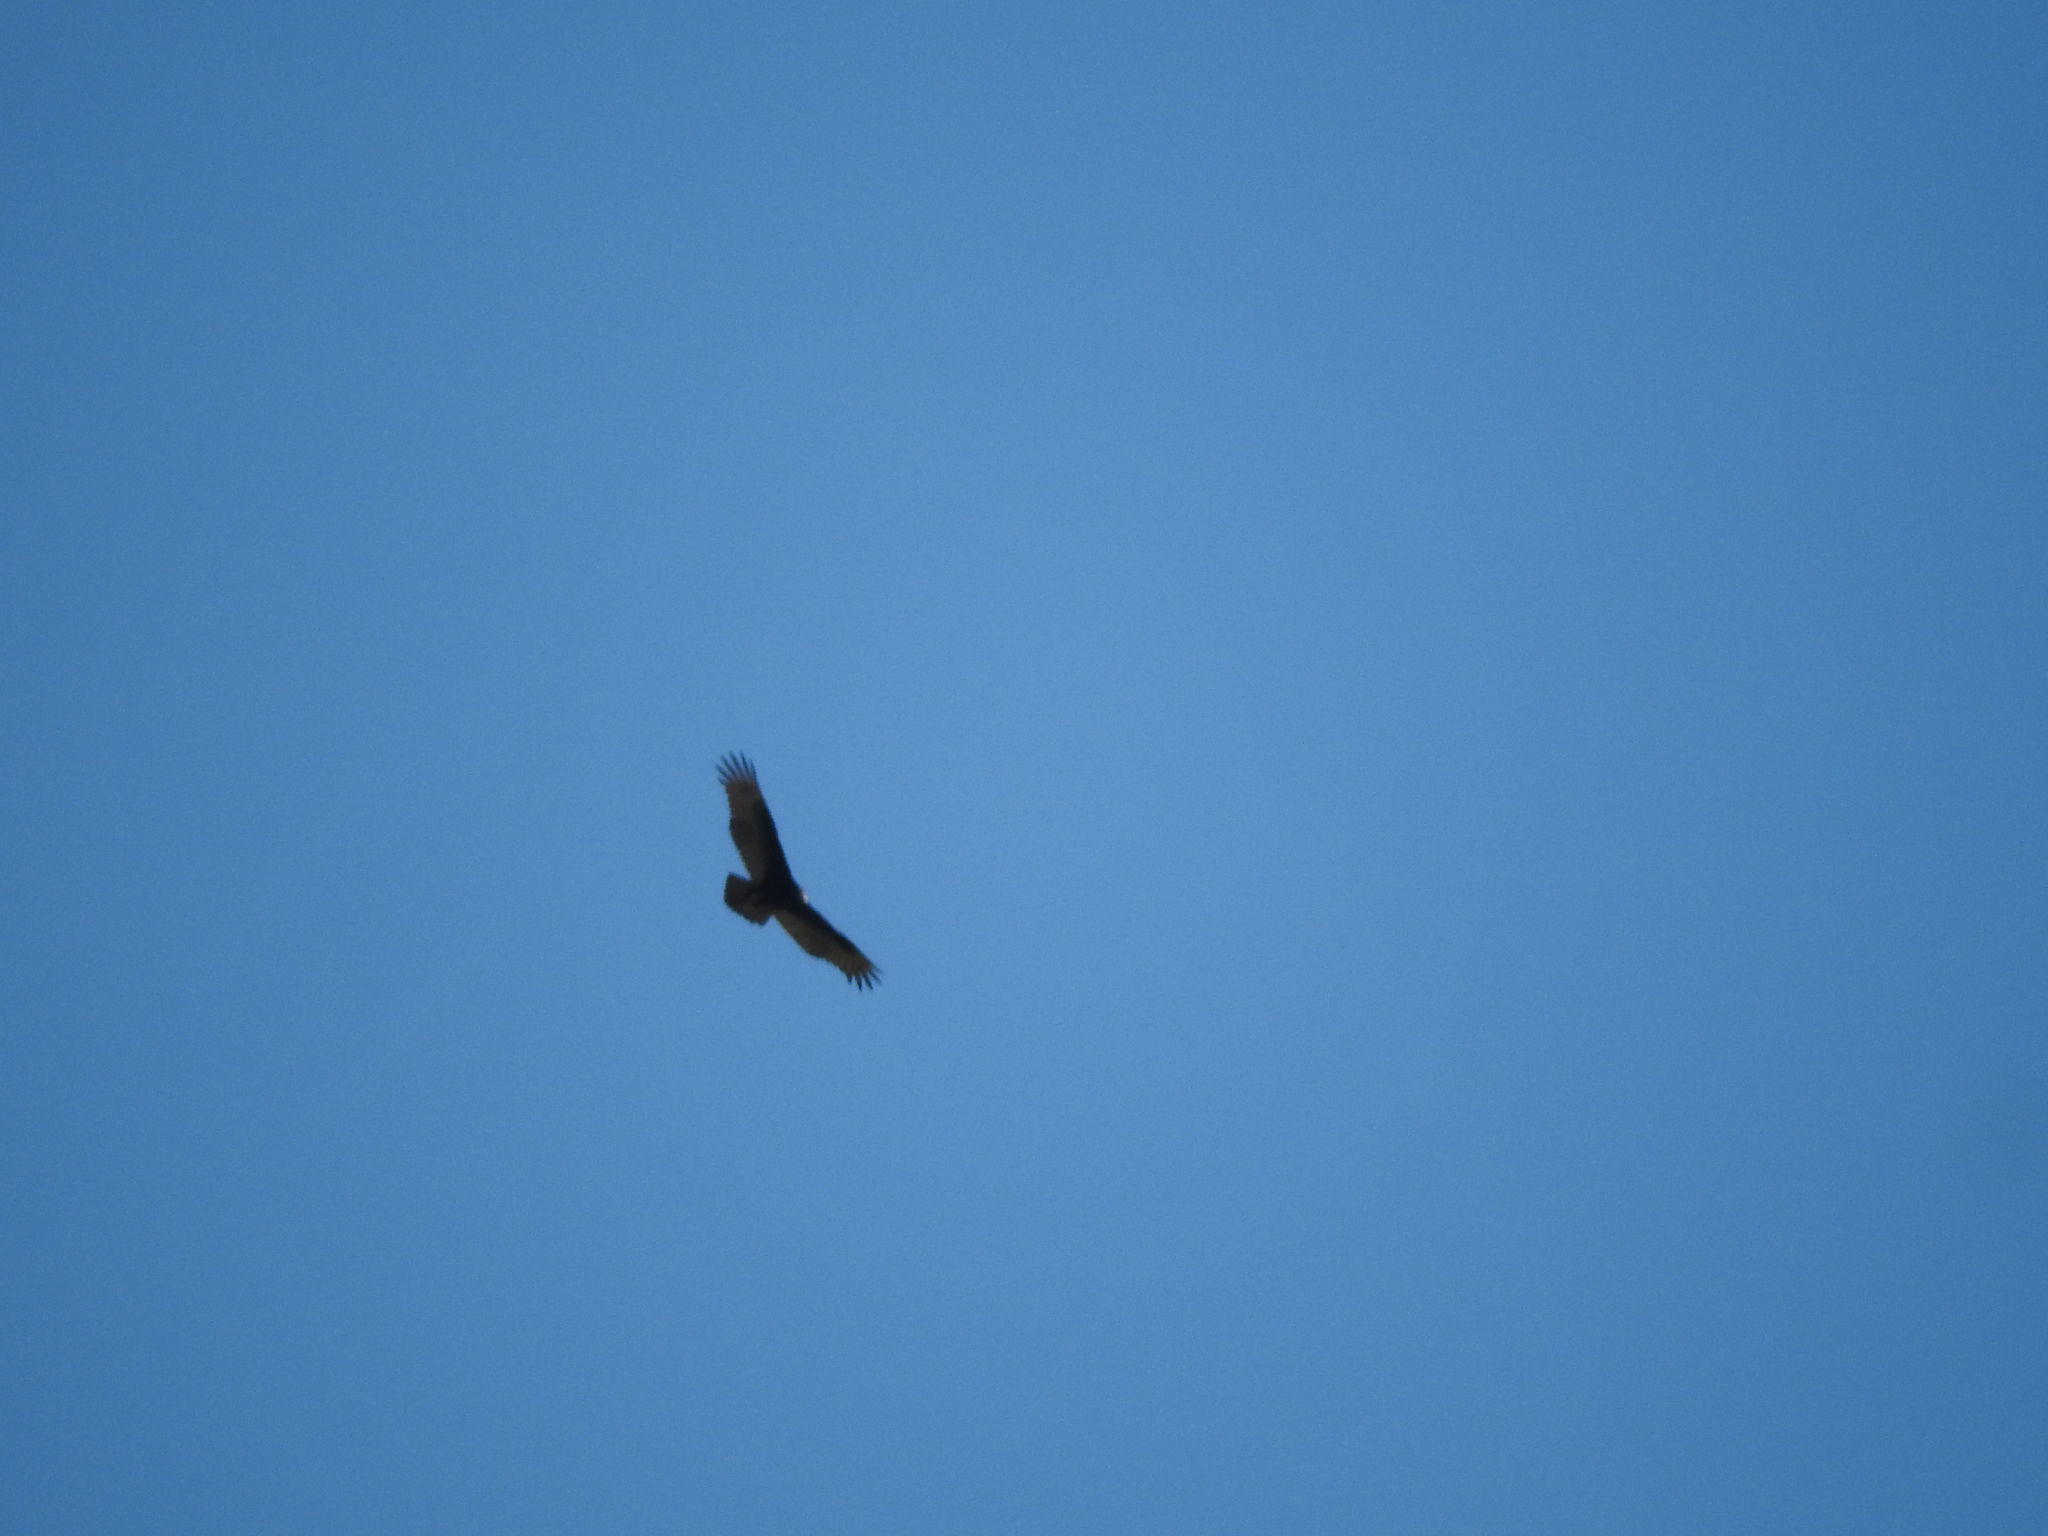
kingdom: Animalia
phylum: Chordata
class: Aves
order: Accipitriformes
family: Cathartidae
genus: Cathartes
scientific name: Cathartes aura
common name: Turkey vulture
